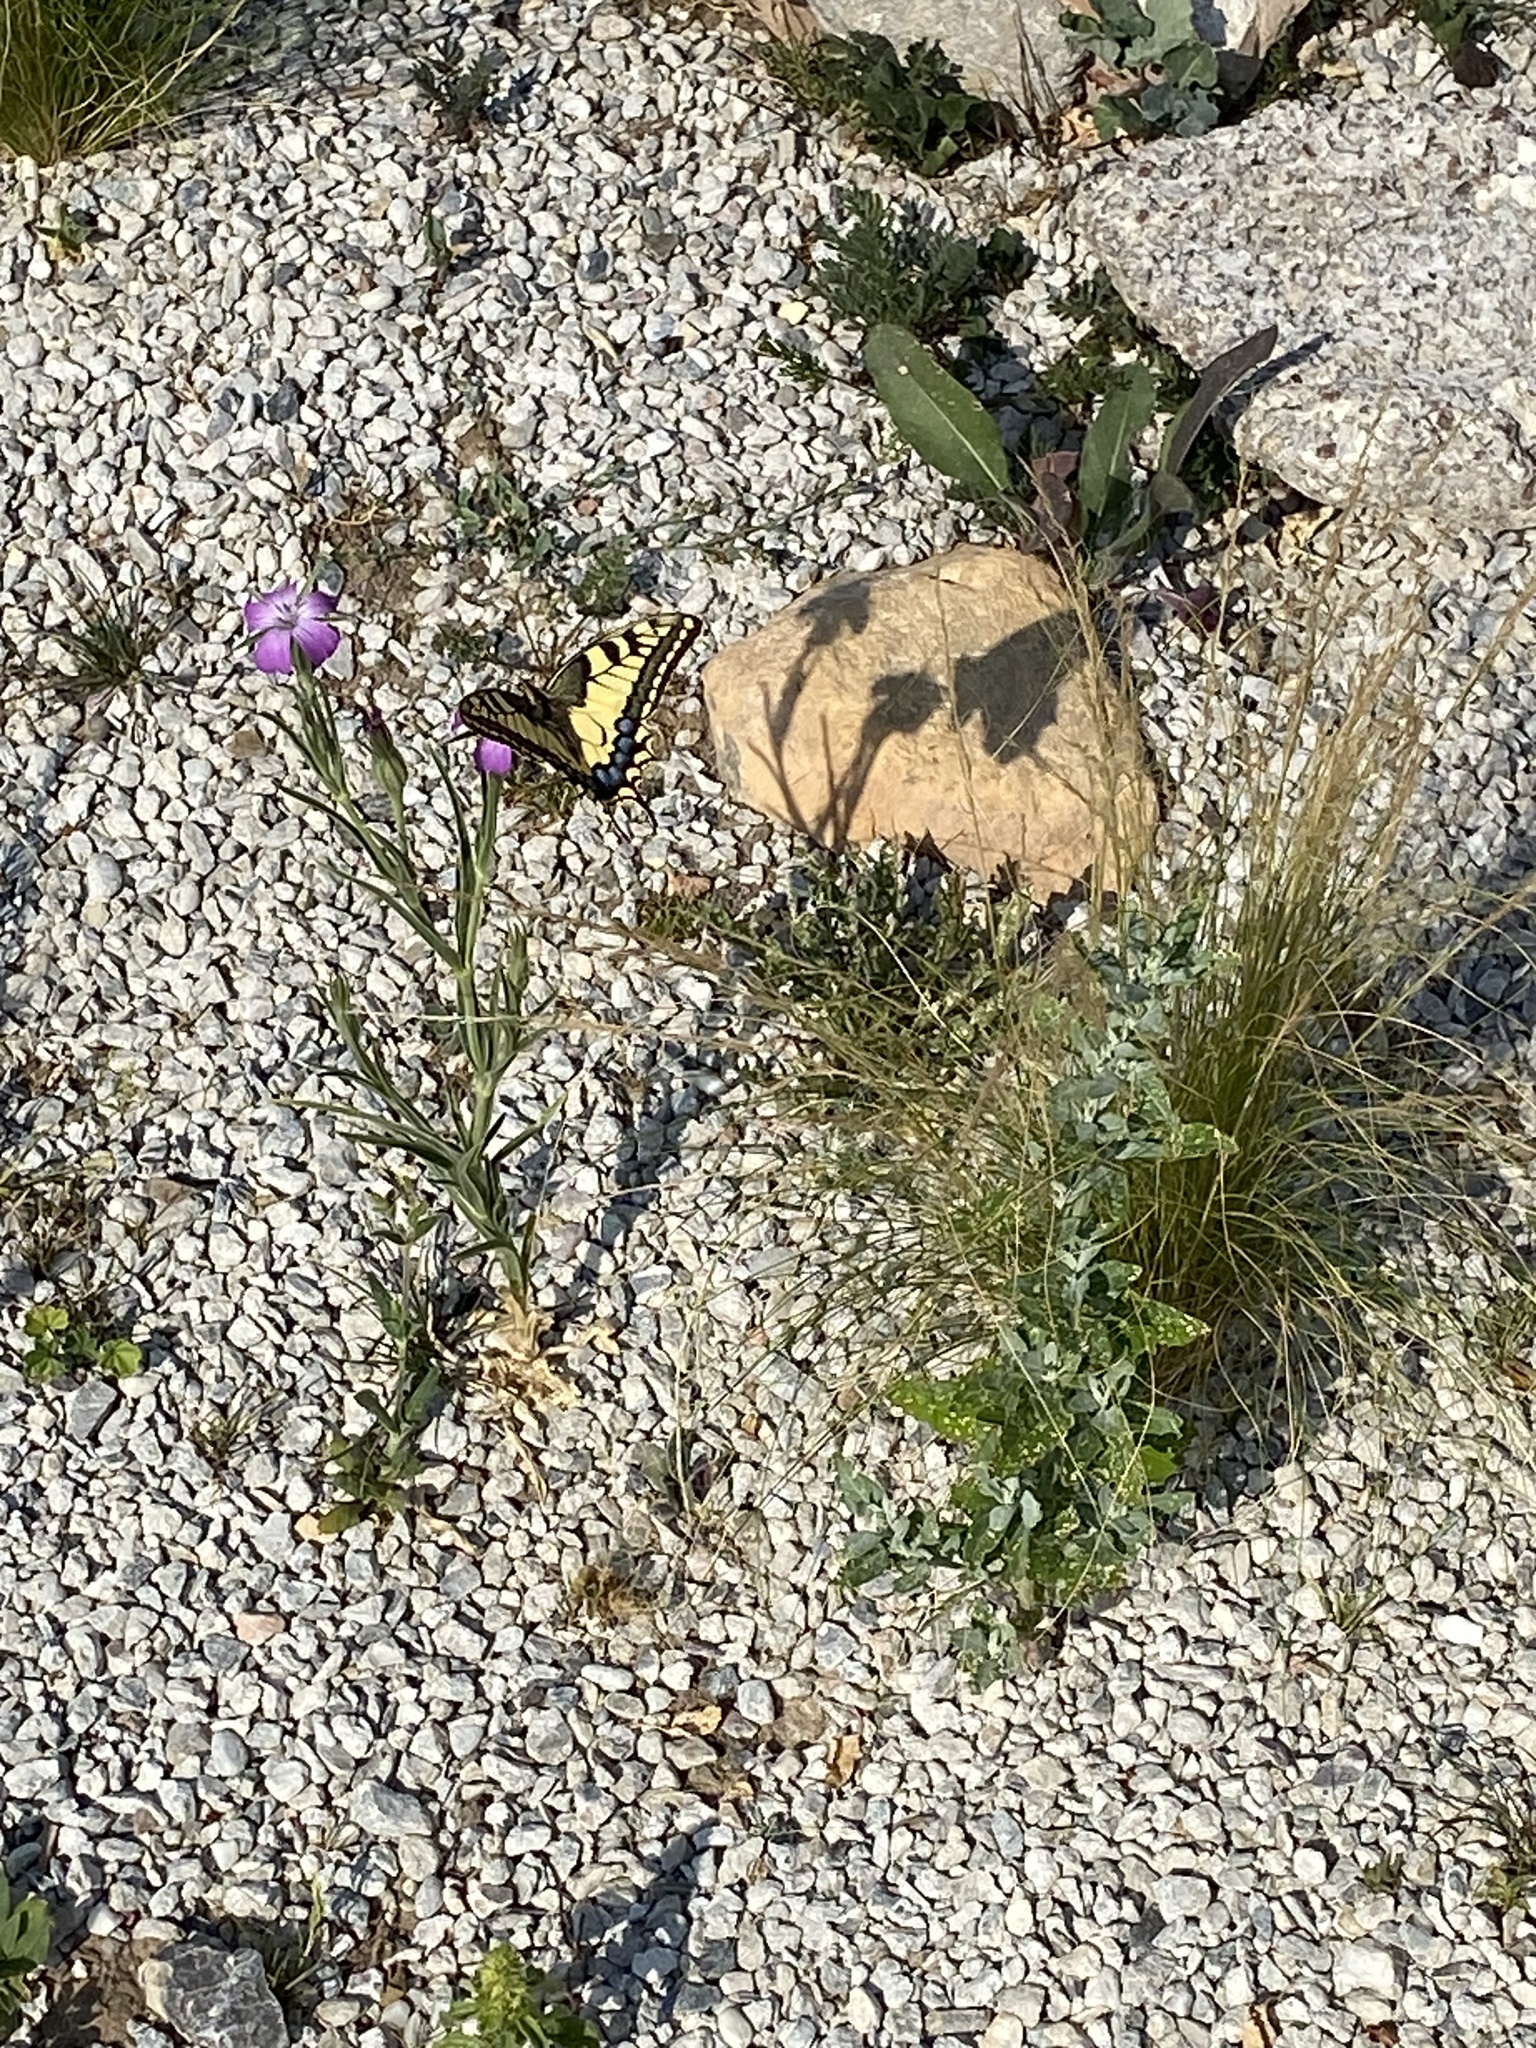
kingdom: Animalia
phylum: Arthropoda
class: Insecta
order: Lepidoptera
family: Papilionidae
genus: Papilio
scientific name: Papilio machaon
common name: Swallowtail
